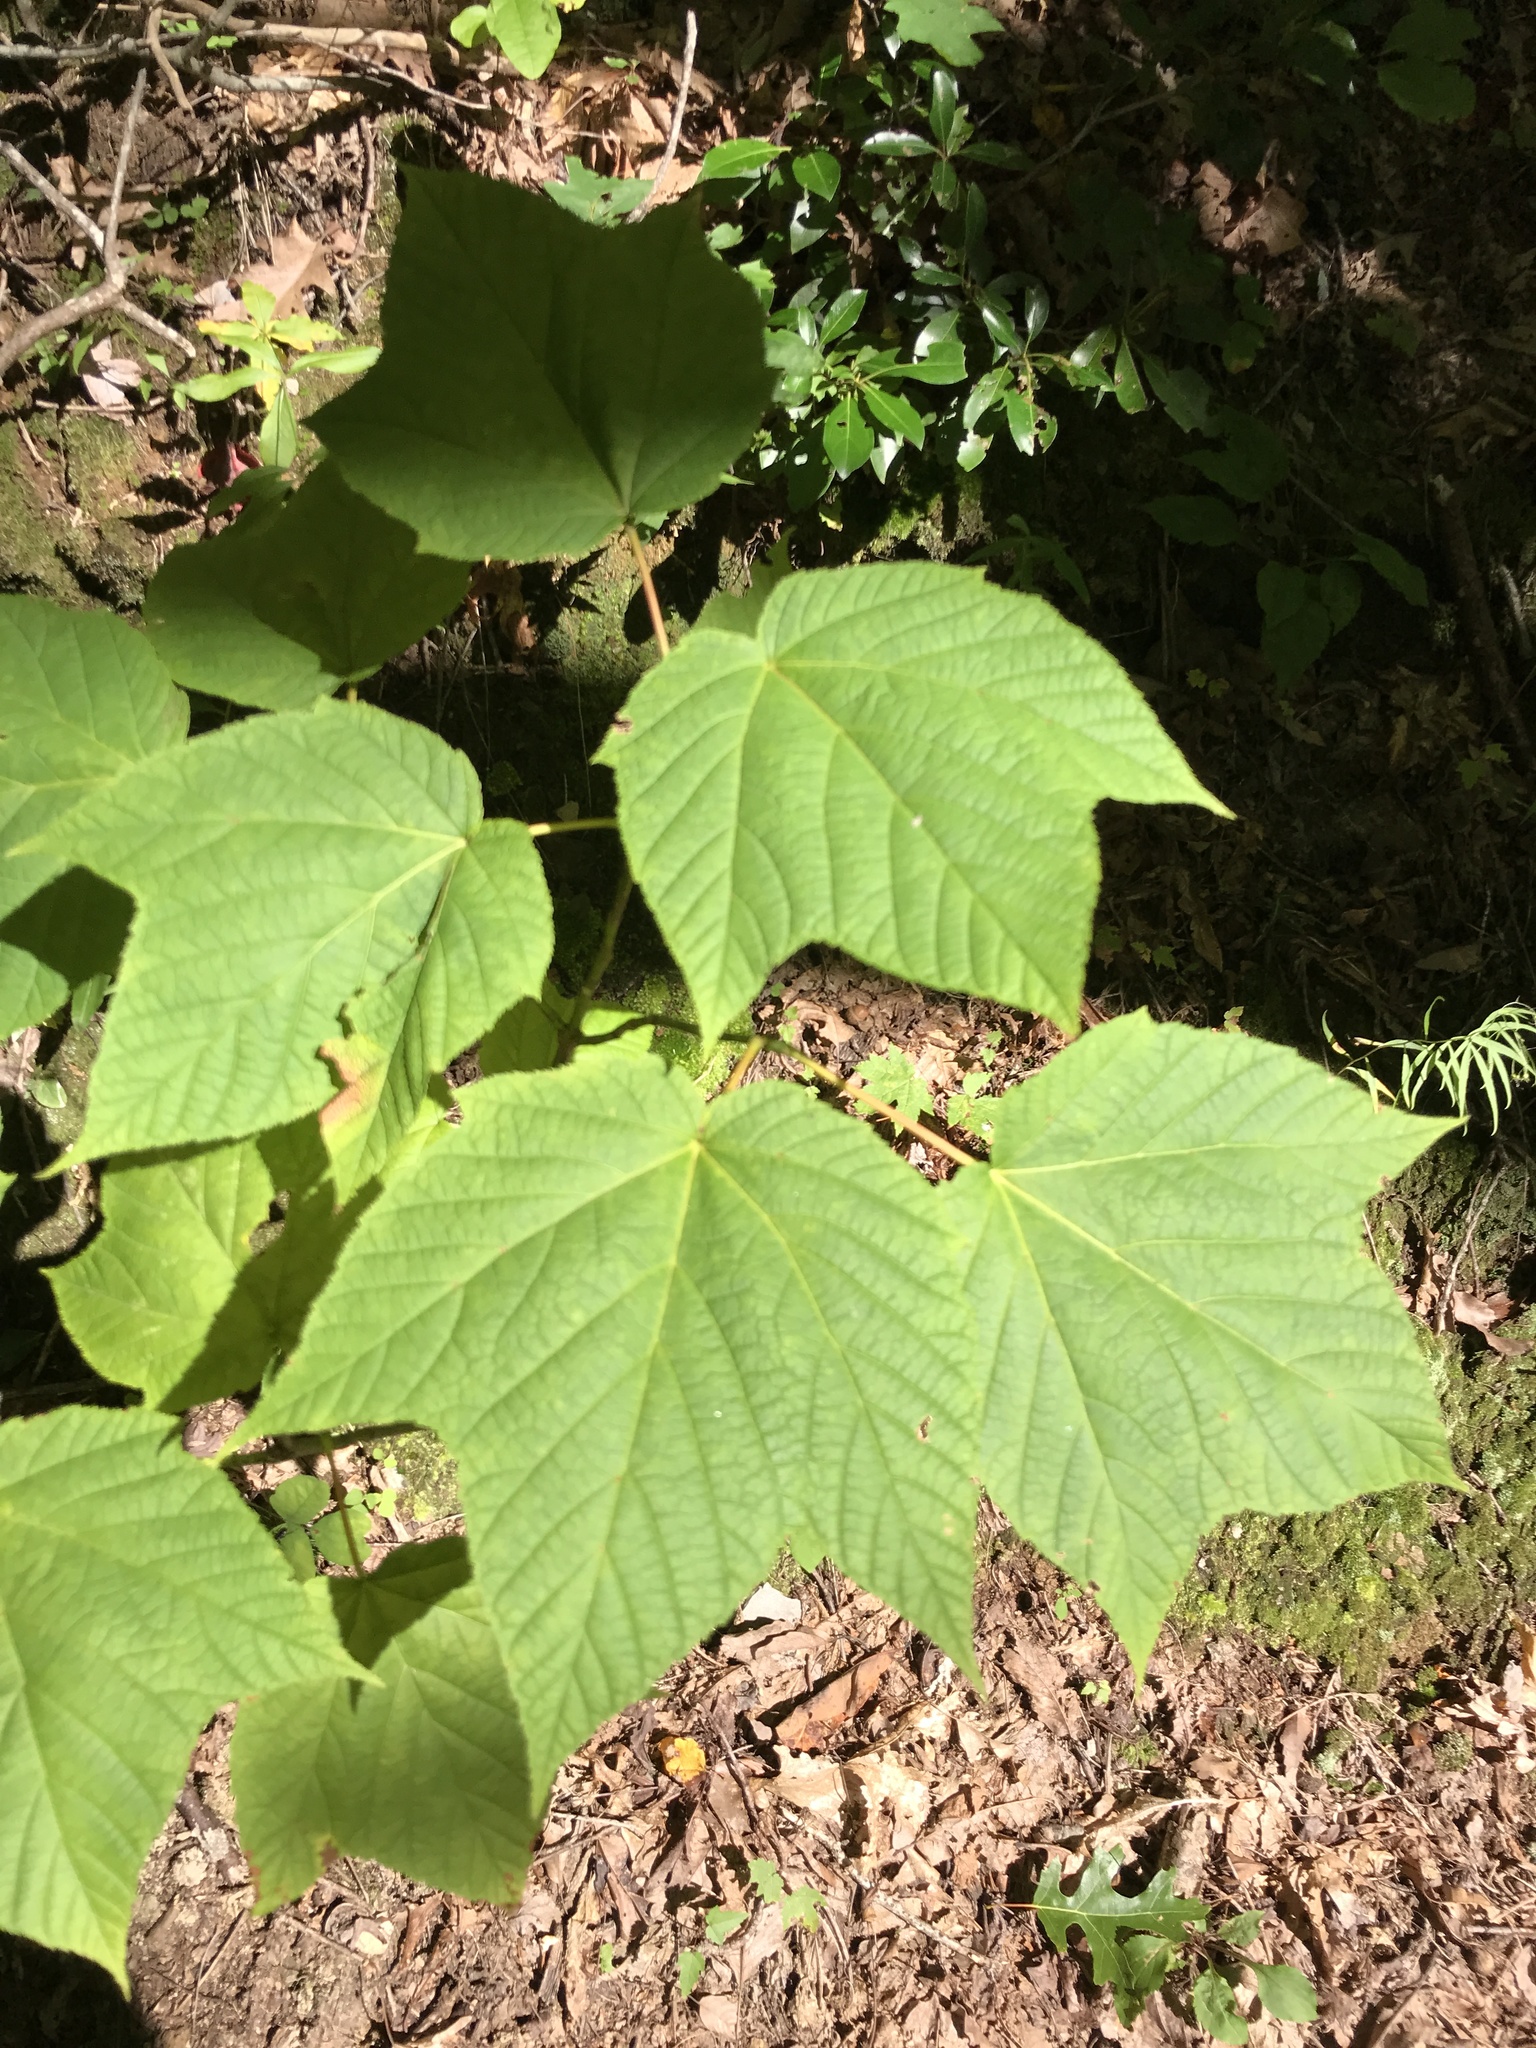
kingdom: Plantae
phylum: Tracheophyta
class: Magnoliopsida
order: Sapindales
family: Sapindaceae
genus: Acer
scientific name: Acer pensylvanicum
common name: Moosewood
